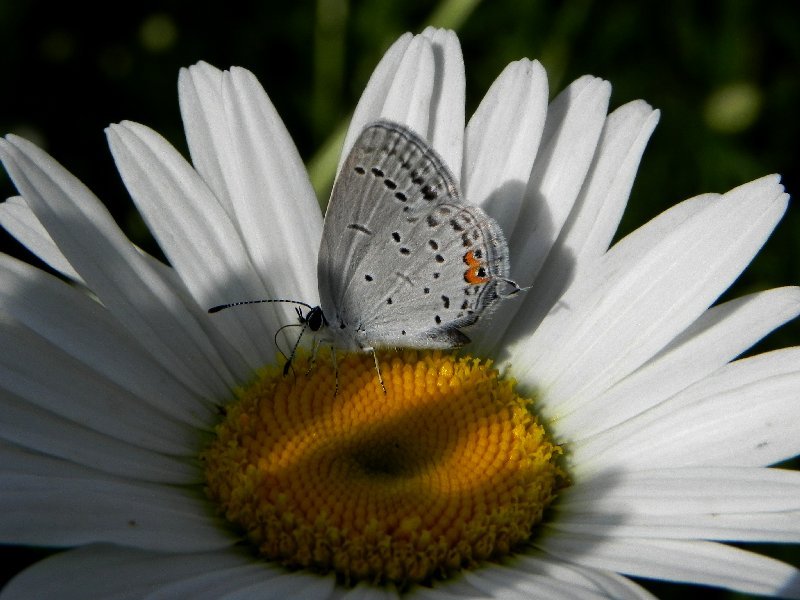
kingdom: Animalia
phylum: Arthropoda
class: Insecta
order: Lepidoptera
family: Lycaenidae
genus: Elkalyce
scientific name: Elkalyce comyntas
